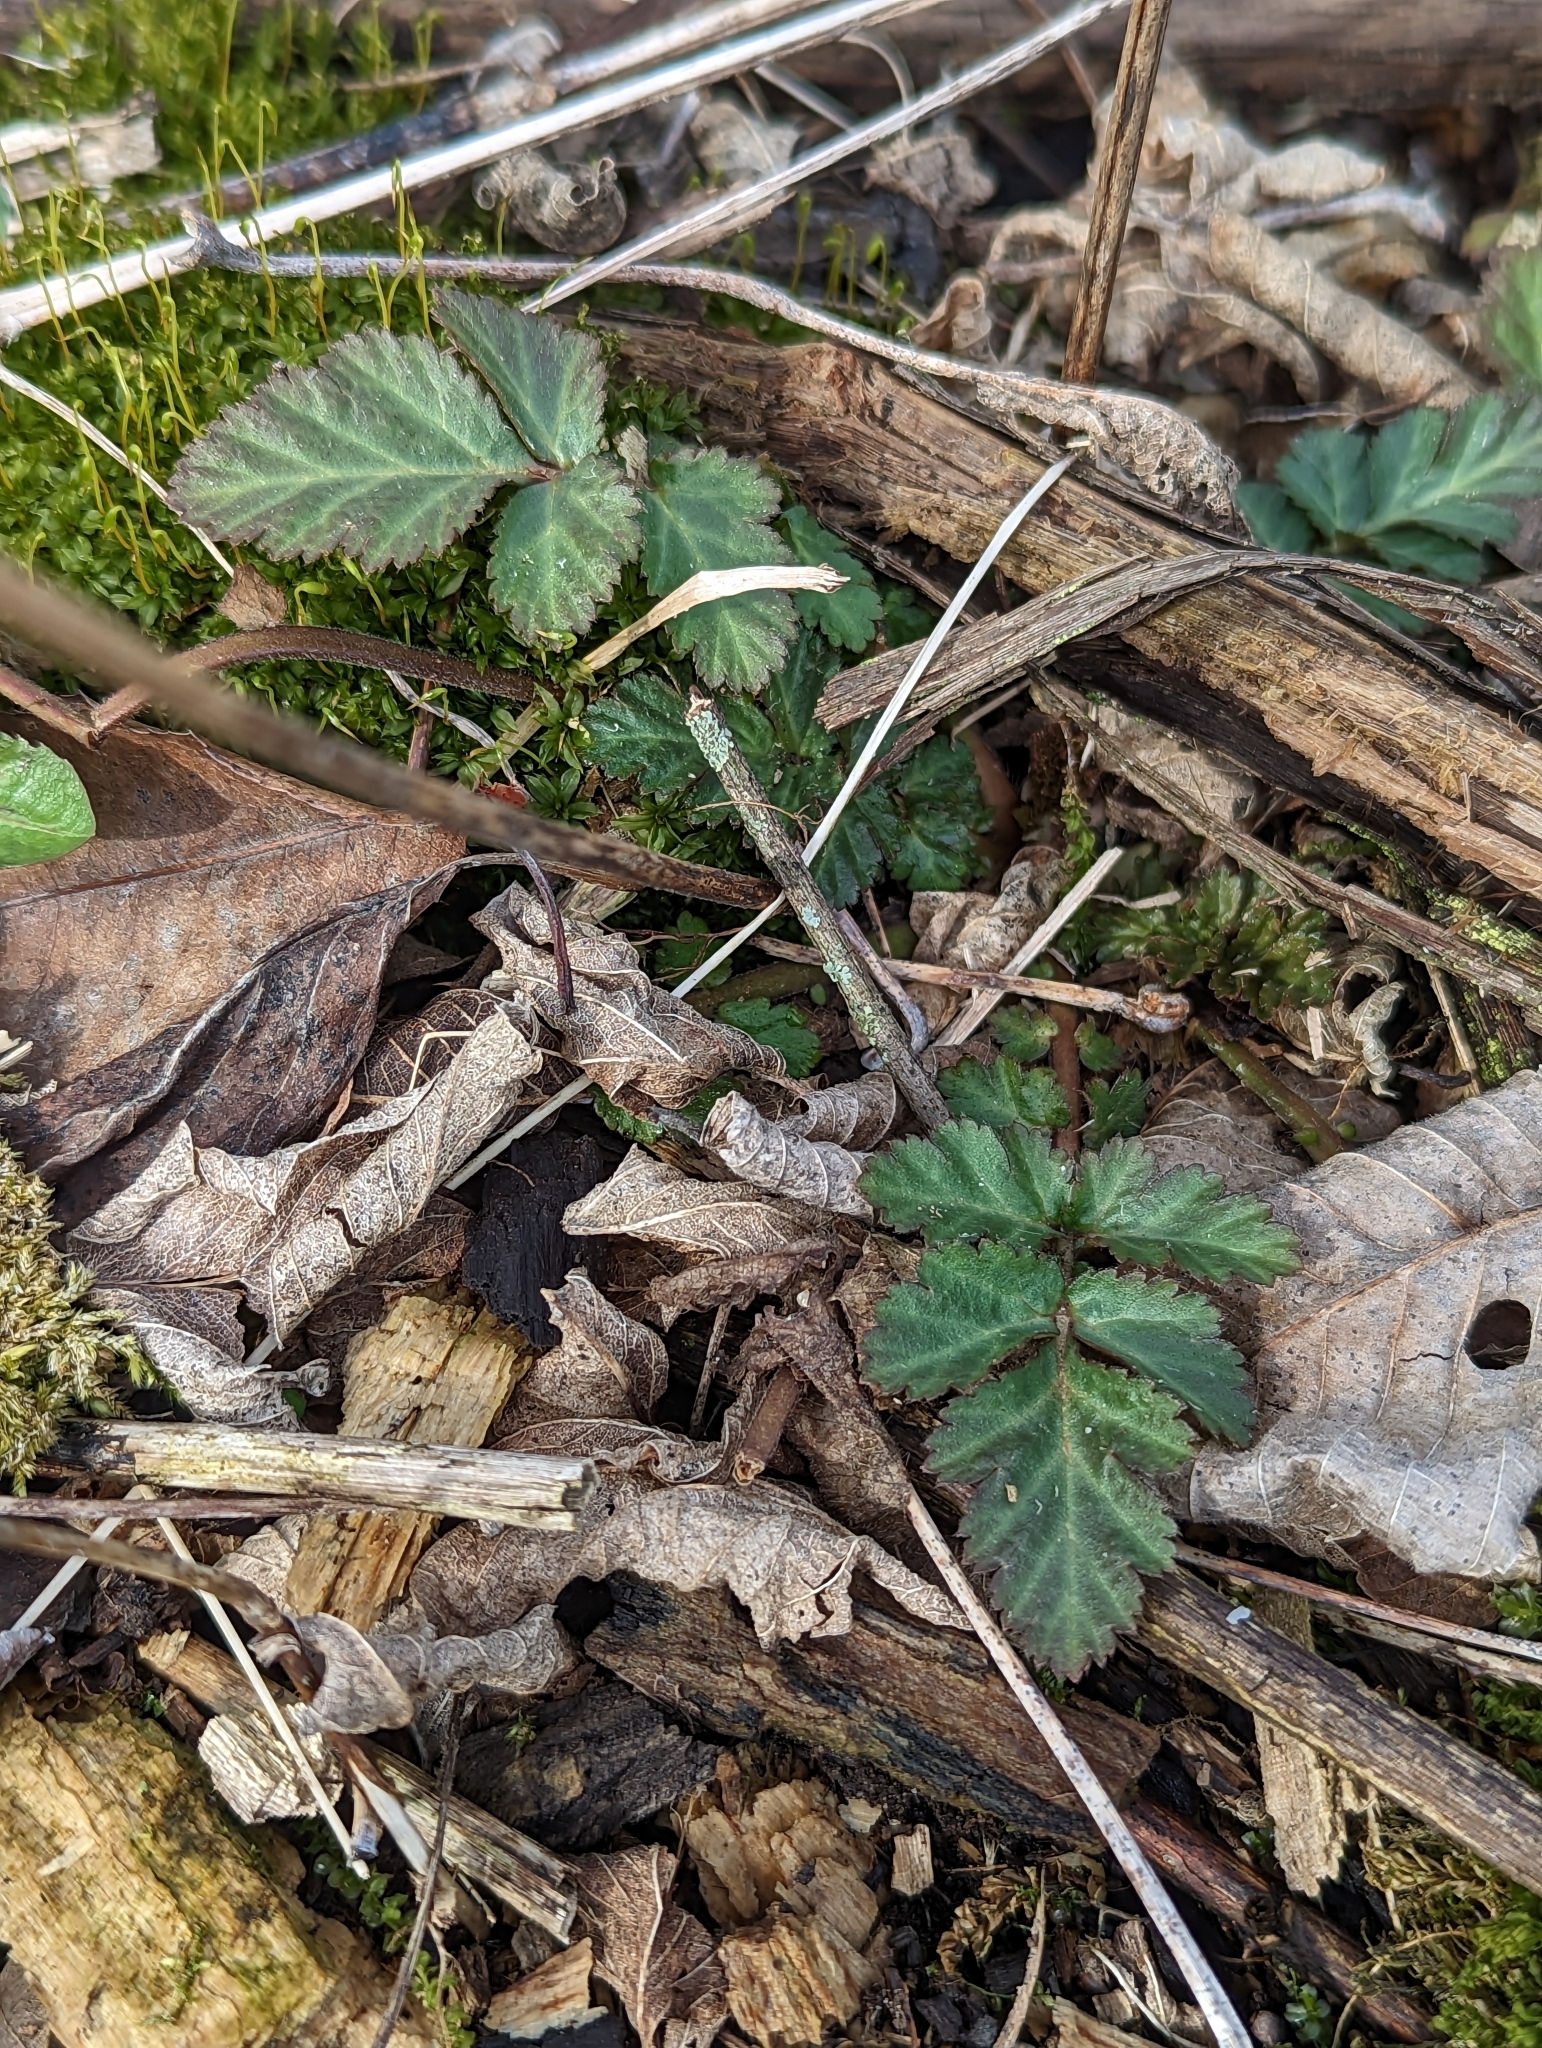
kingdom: Plantae
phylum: Tracheophyta
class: Magnoliopsida
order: Rosales
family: Rosaceae
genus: Geum
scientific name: Geum canadense
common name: White avens
